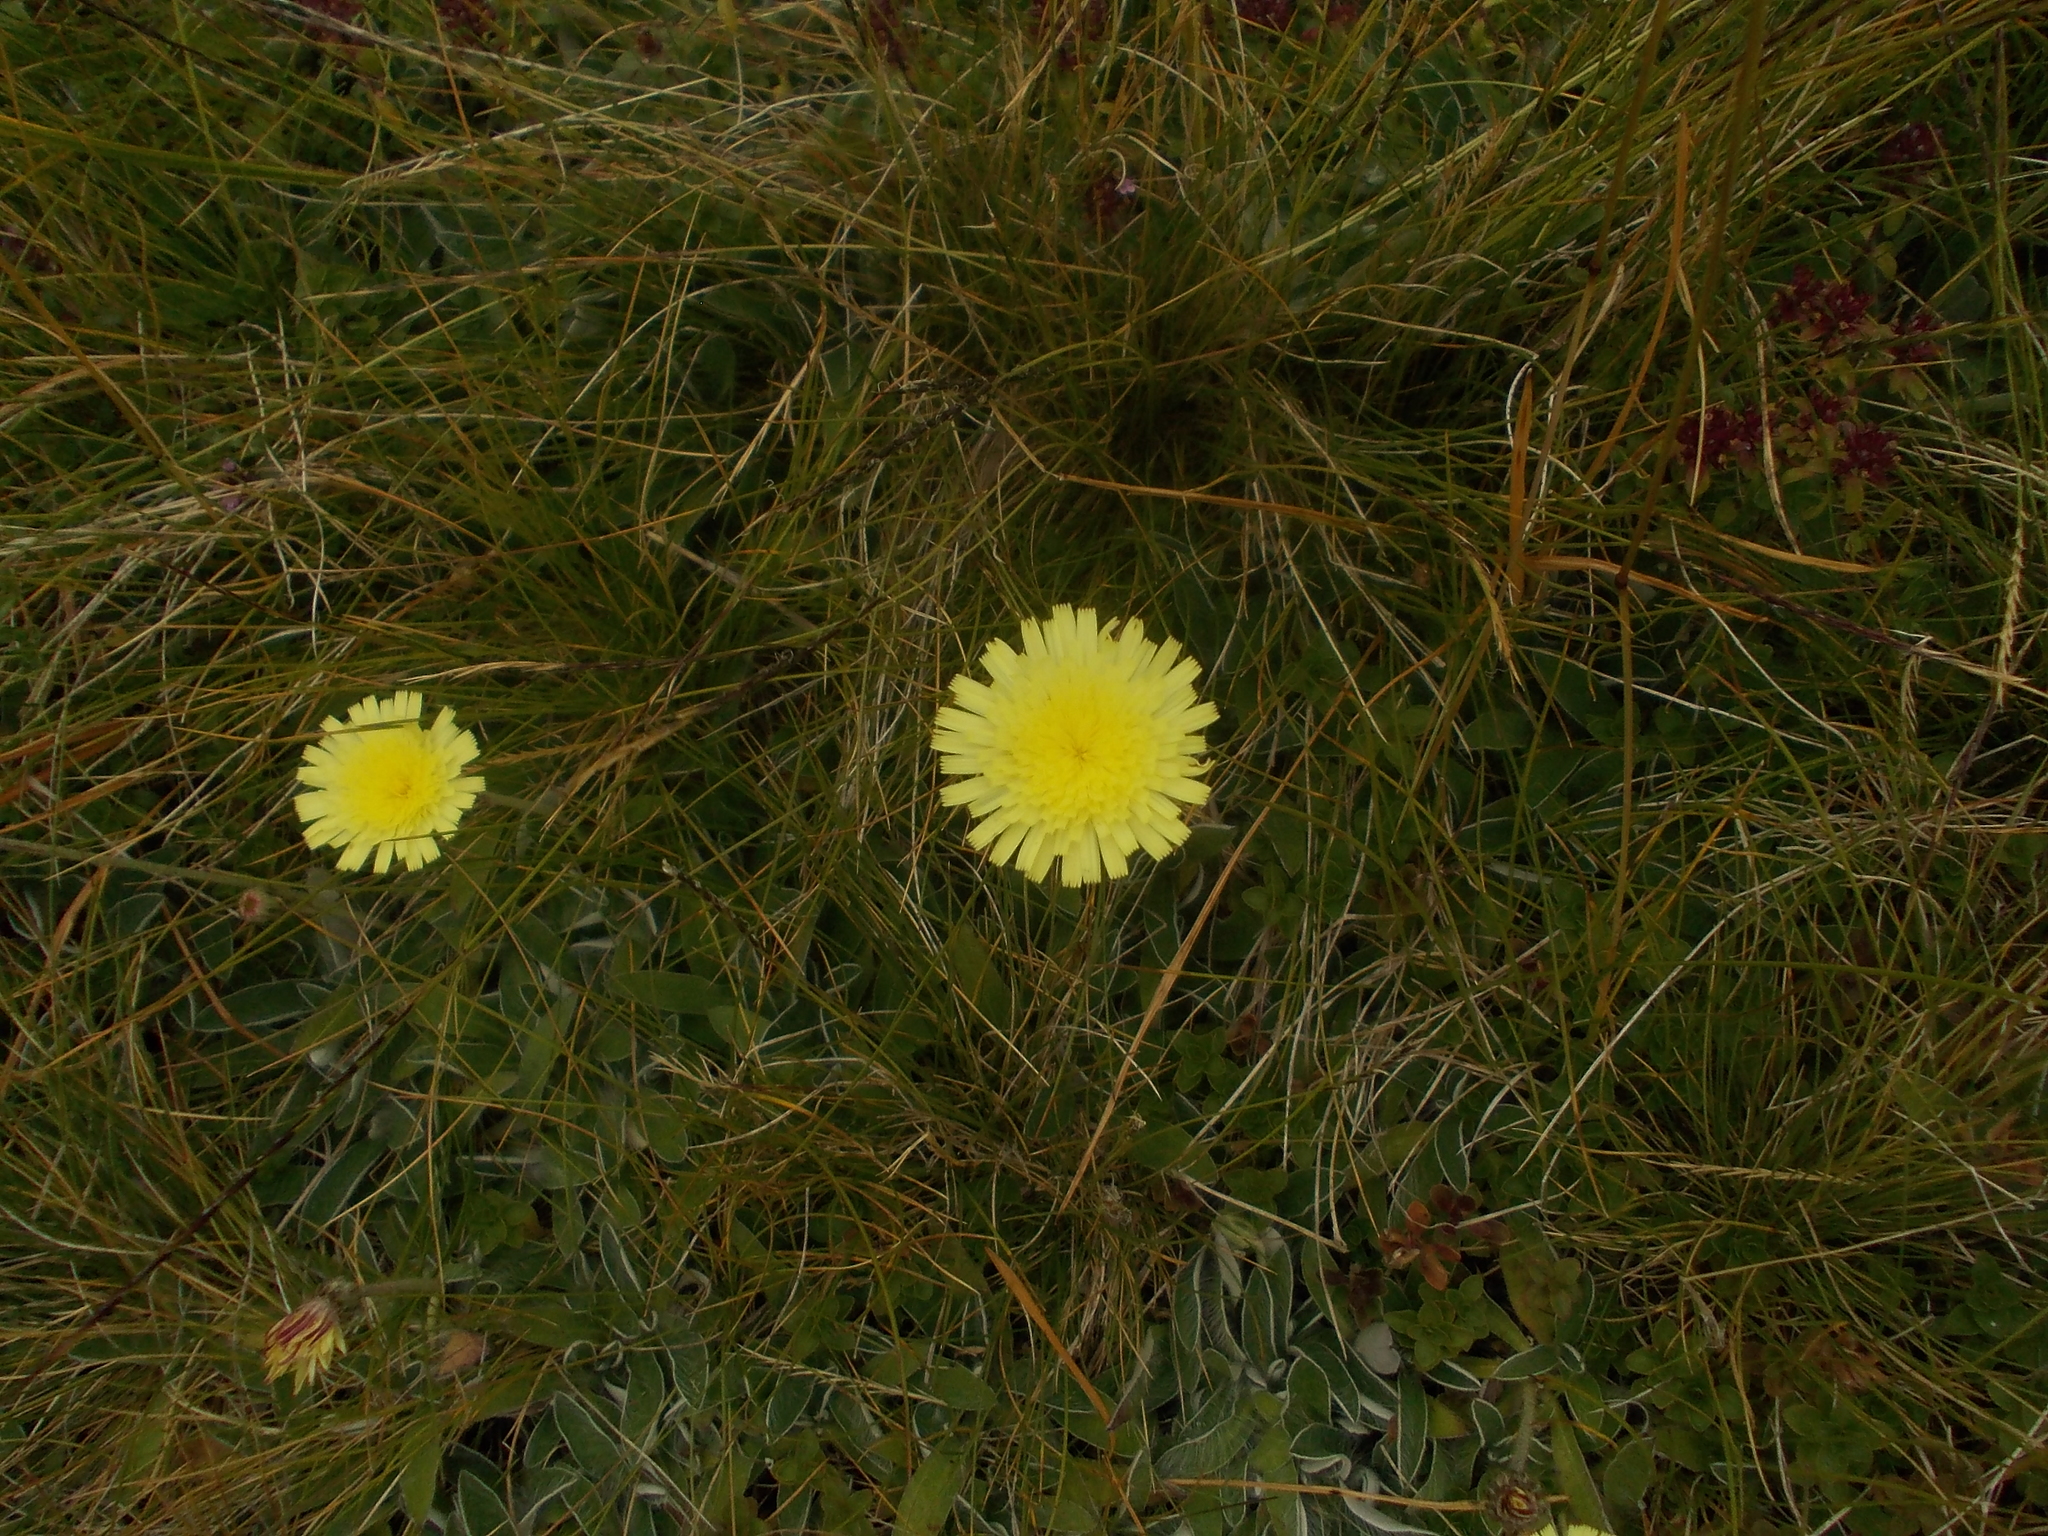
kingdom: Plantae
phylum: Tracheophyta
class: Magnoliopsida
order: Asterales
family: Asteraceae
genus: Pilosella
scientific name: Pilosella officinarum
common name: Mouse-ear hawkweed
